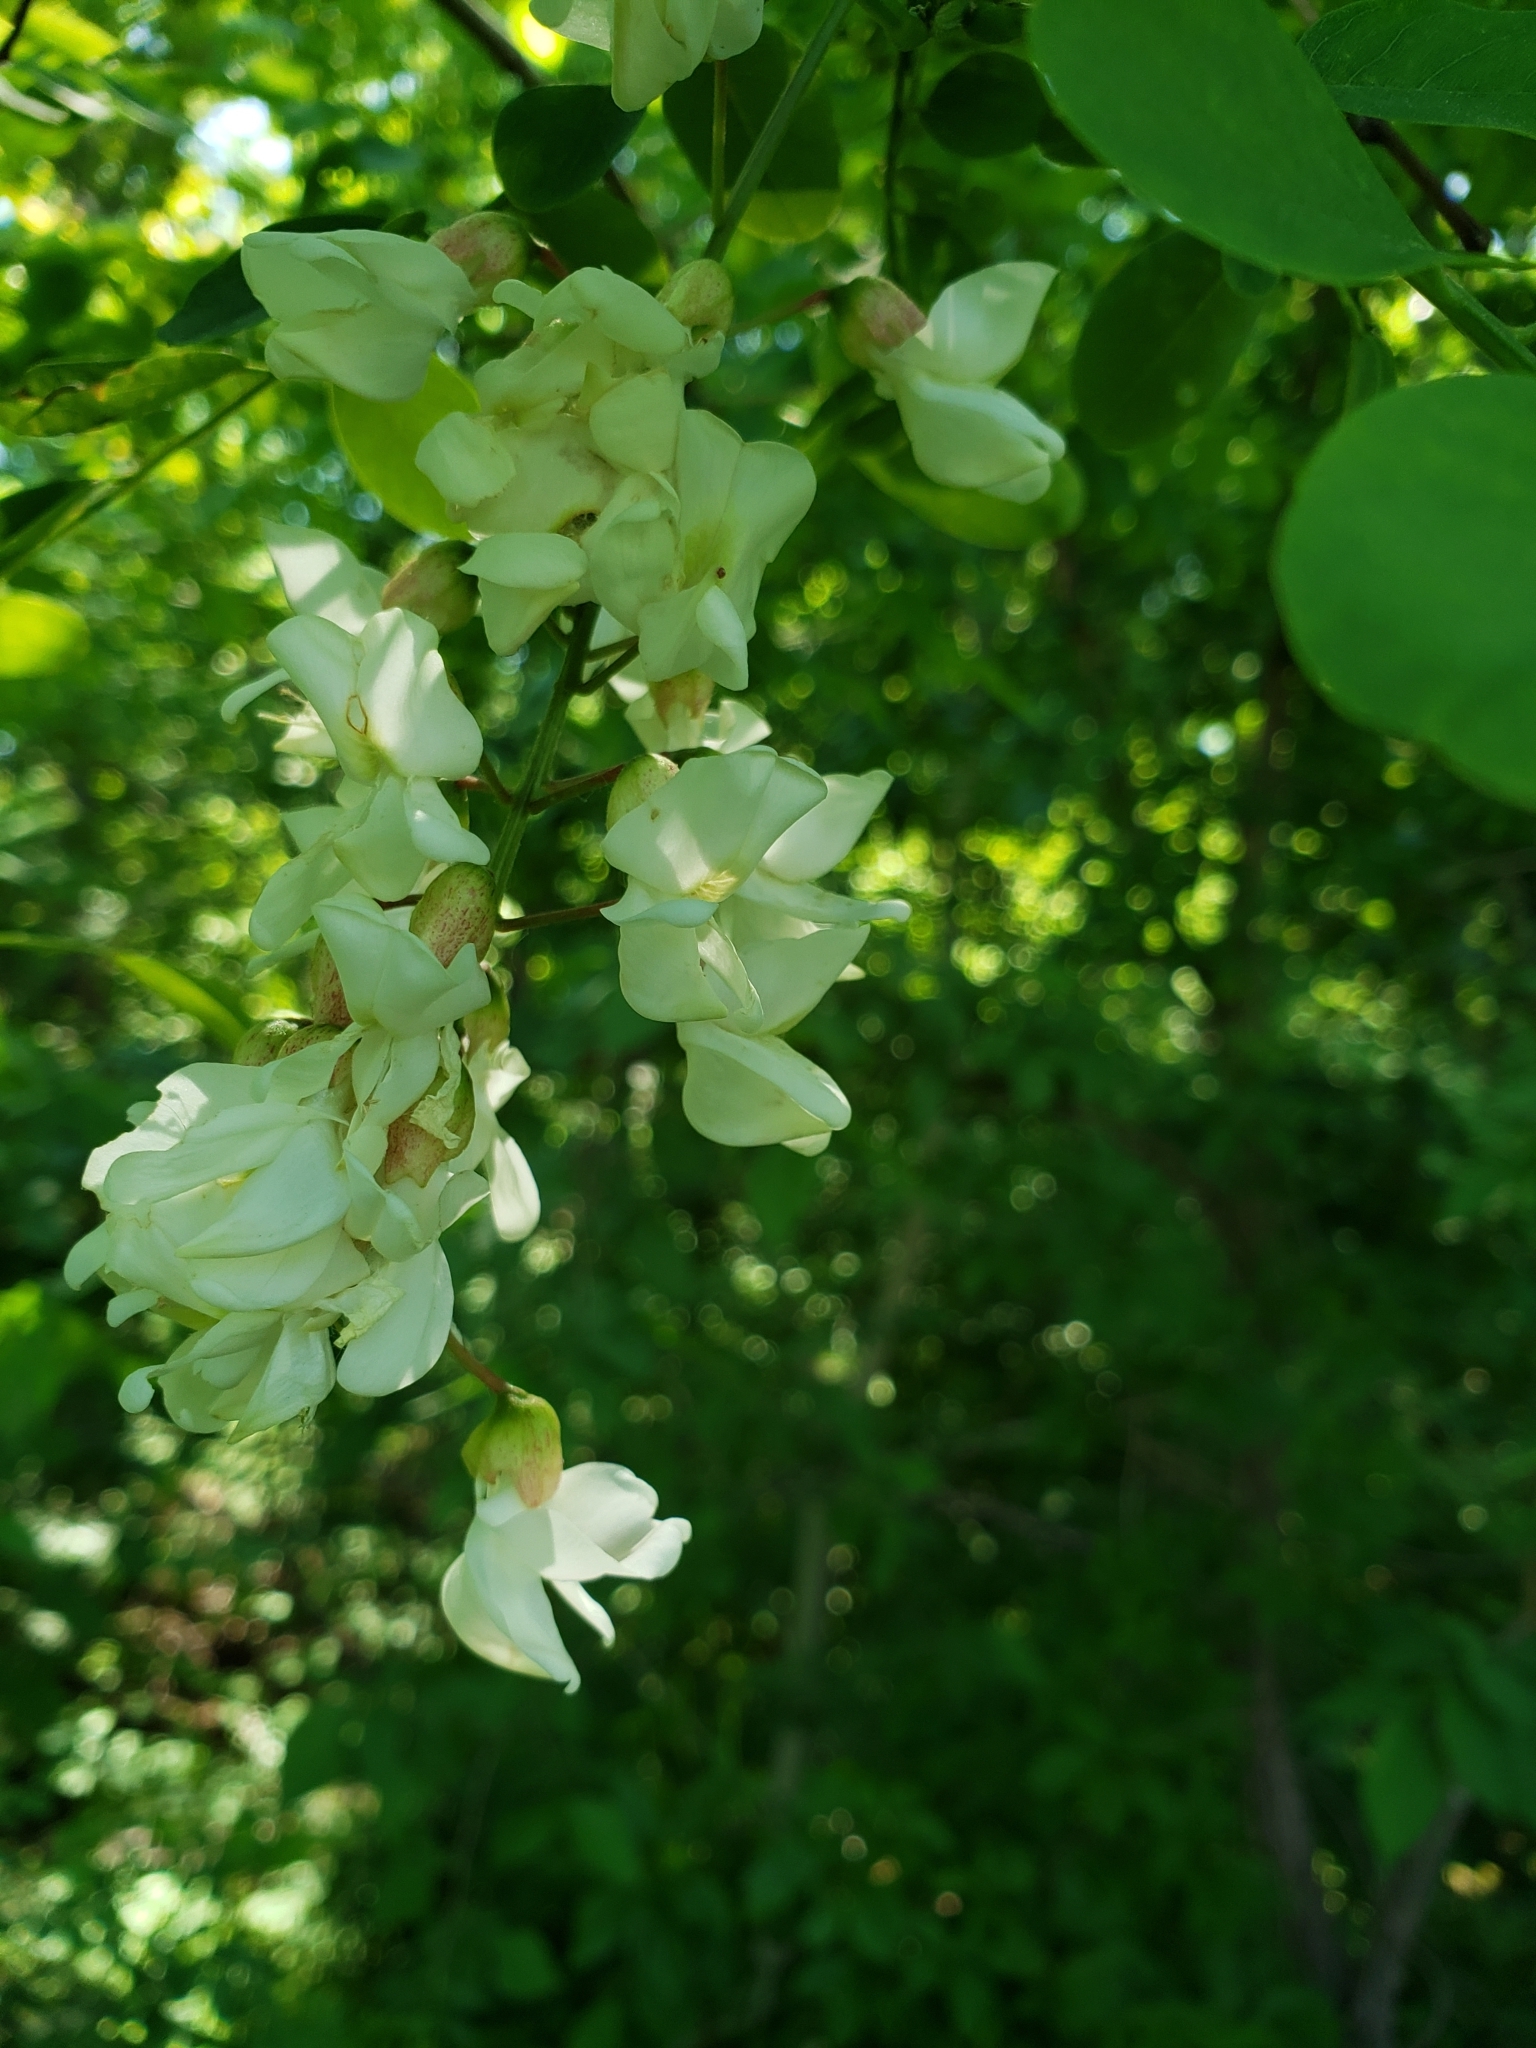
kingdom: Plantae
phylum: Tracheophyta
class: Magnoliopsida
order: Fabales
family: Fabaceae
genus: Robinia
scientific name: Robinia pseudoacacia
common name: Black locust
